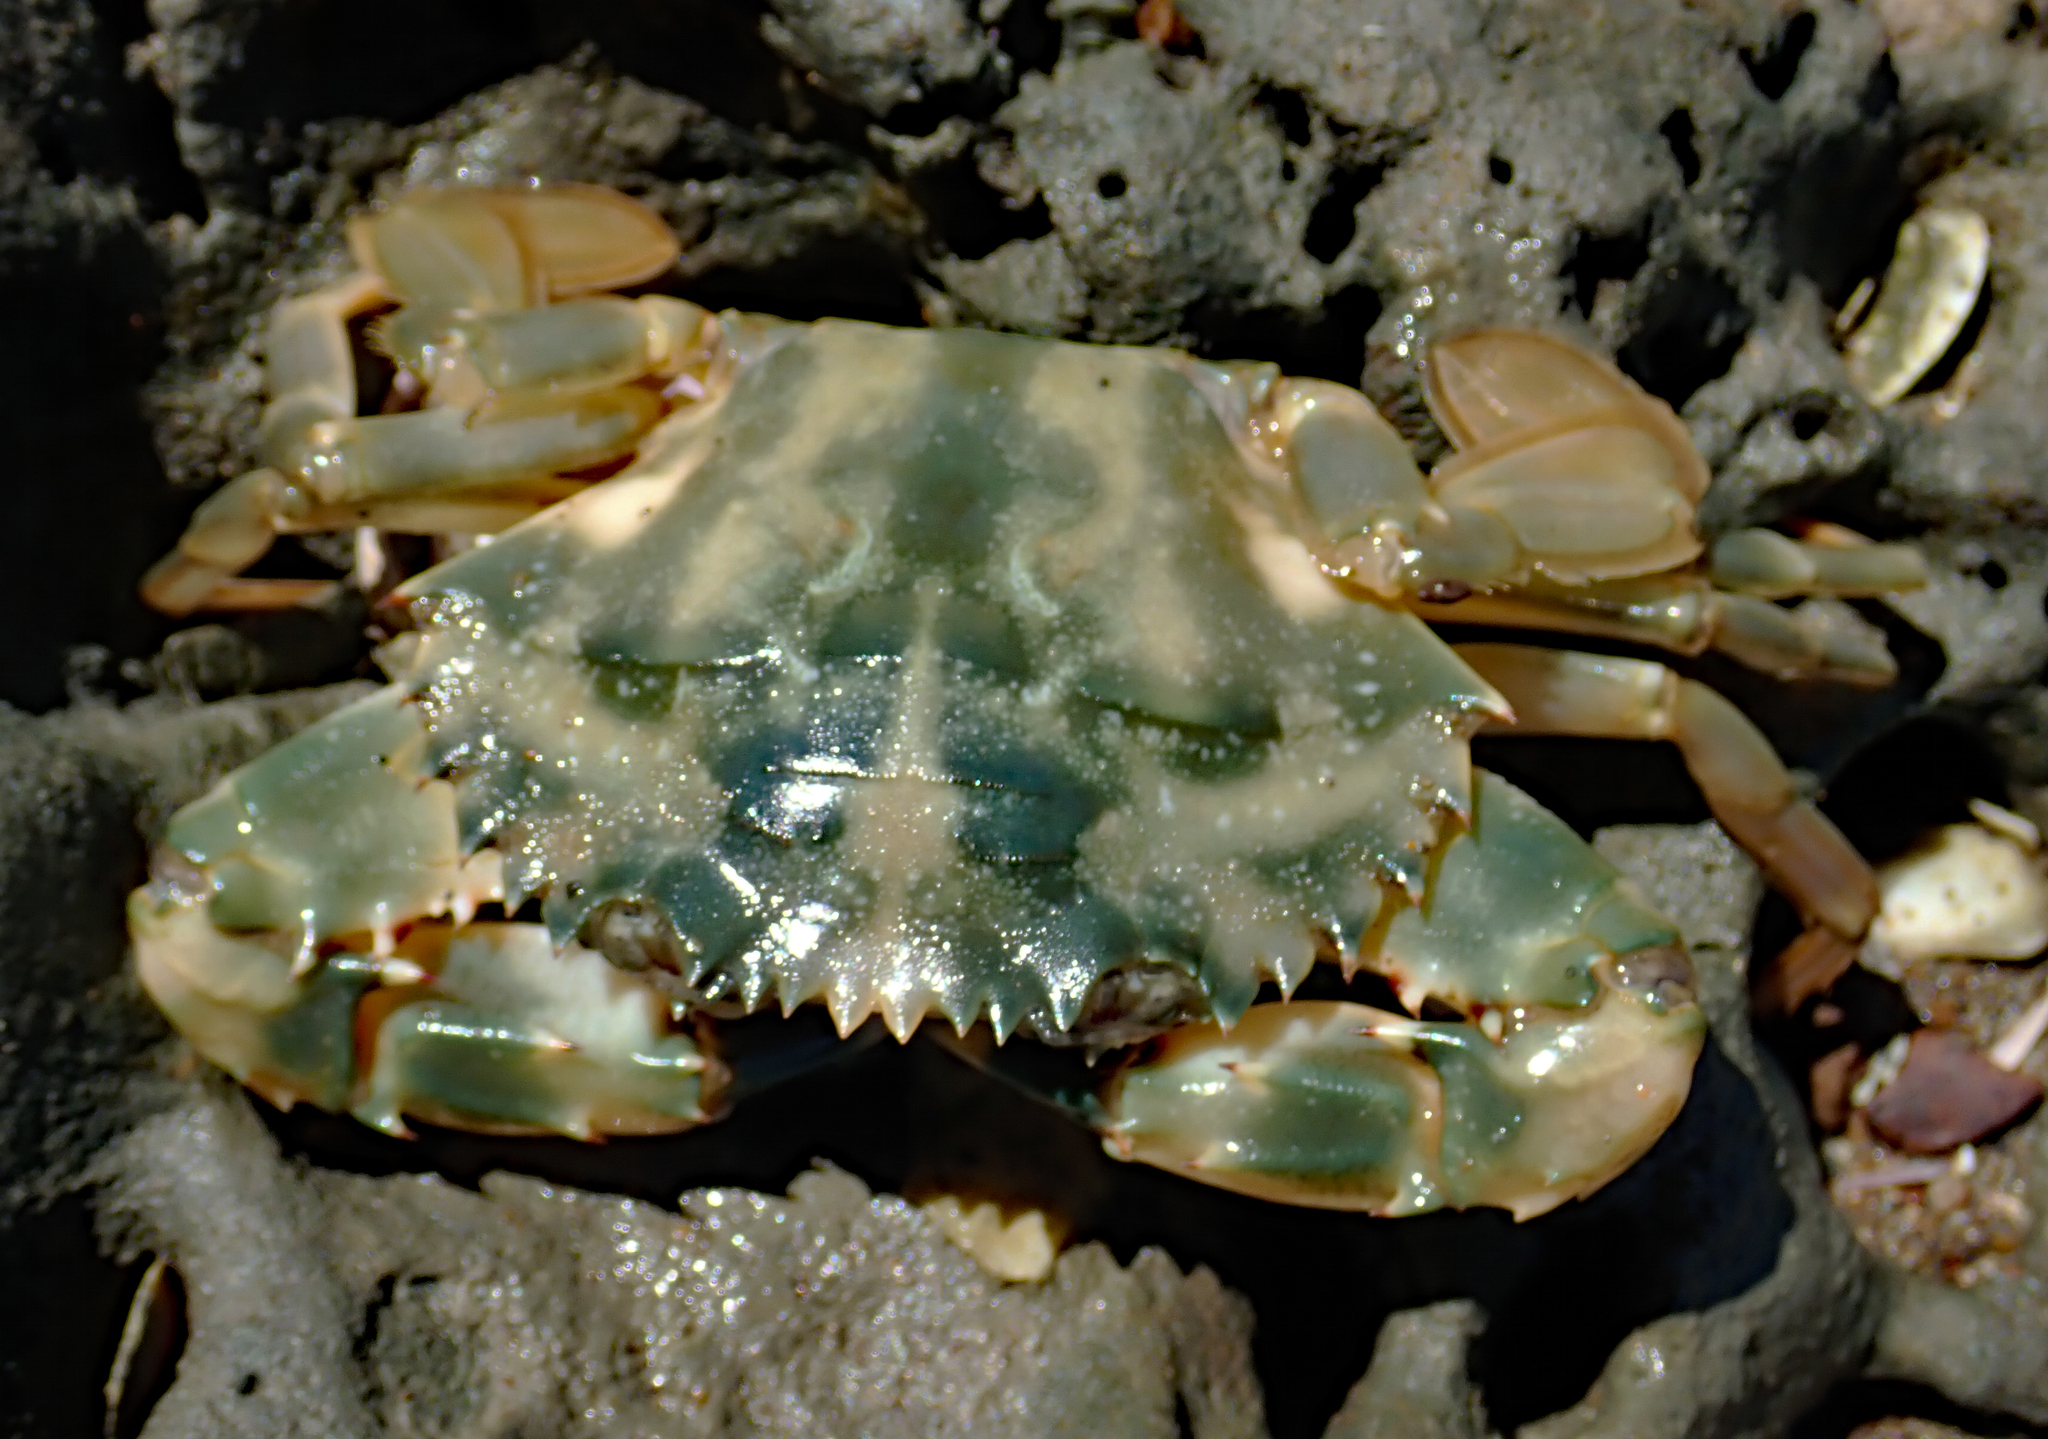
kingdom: Animalia
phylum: Arthropoda
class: Malacostraca
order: Decapoda
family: Portunidae
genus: Charybdis
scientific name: Charybdis japonica
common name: Asian paddle crab
